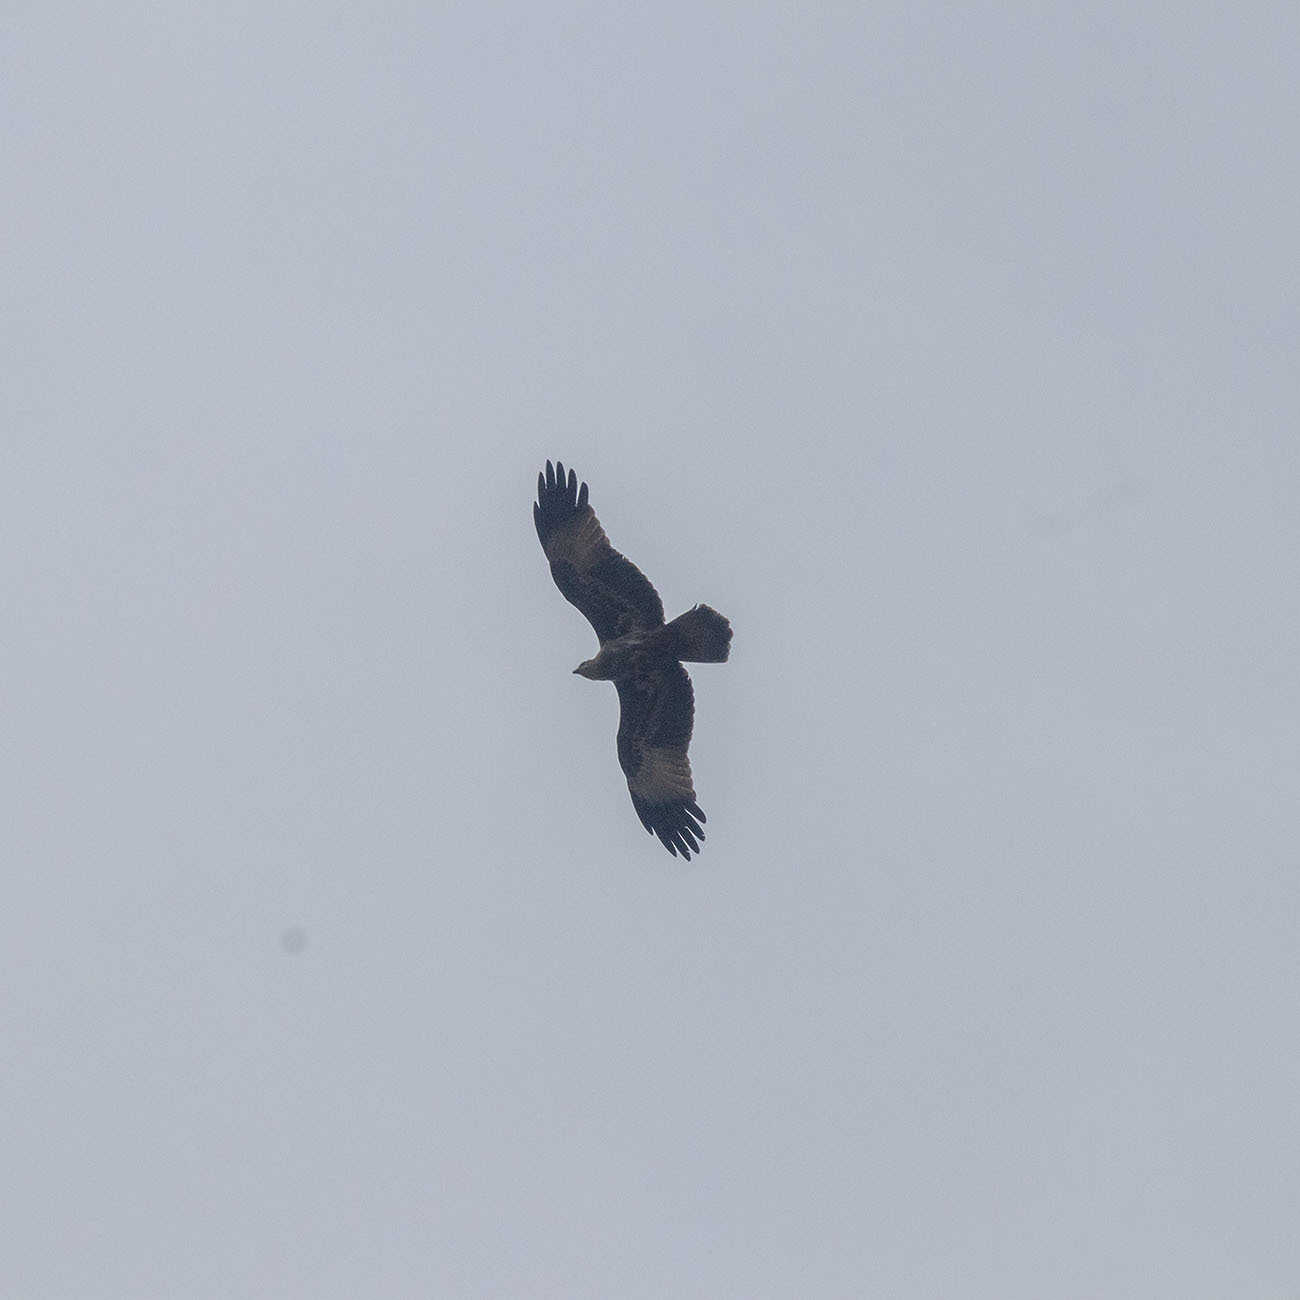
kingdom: Animalia
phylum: Chordata
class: Aves
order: Accipitriformes
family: Accipitridae
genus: Haliastur
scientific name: Haliastur indus
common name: Brahminy kite
